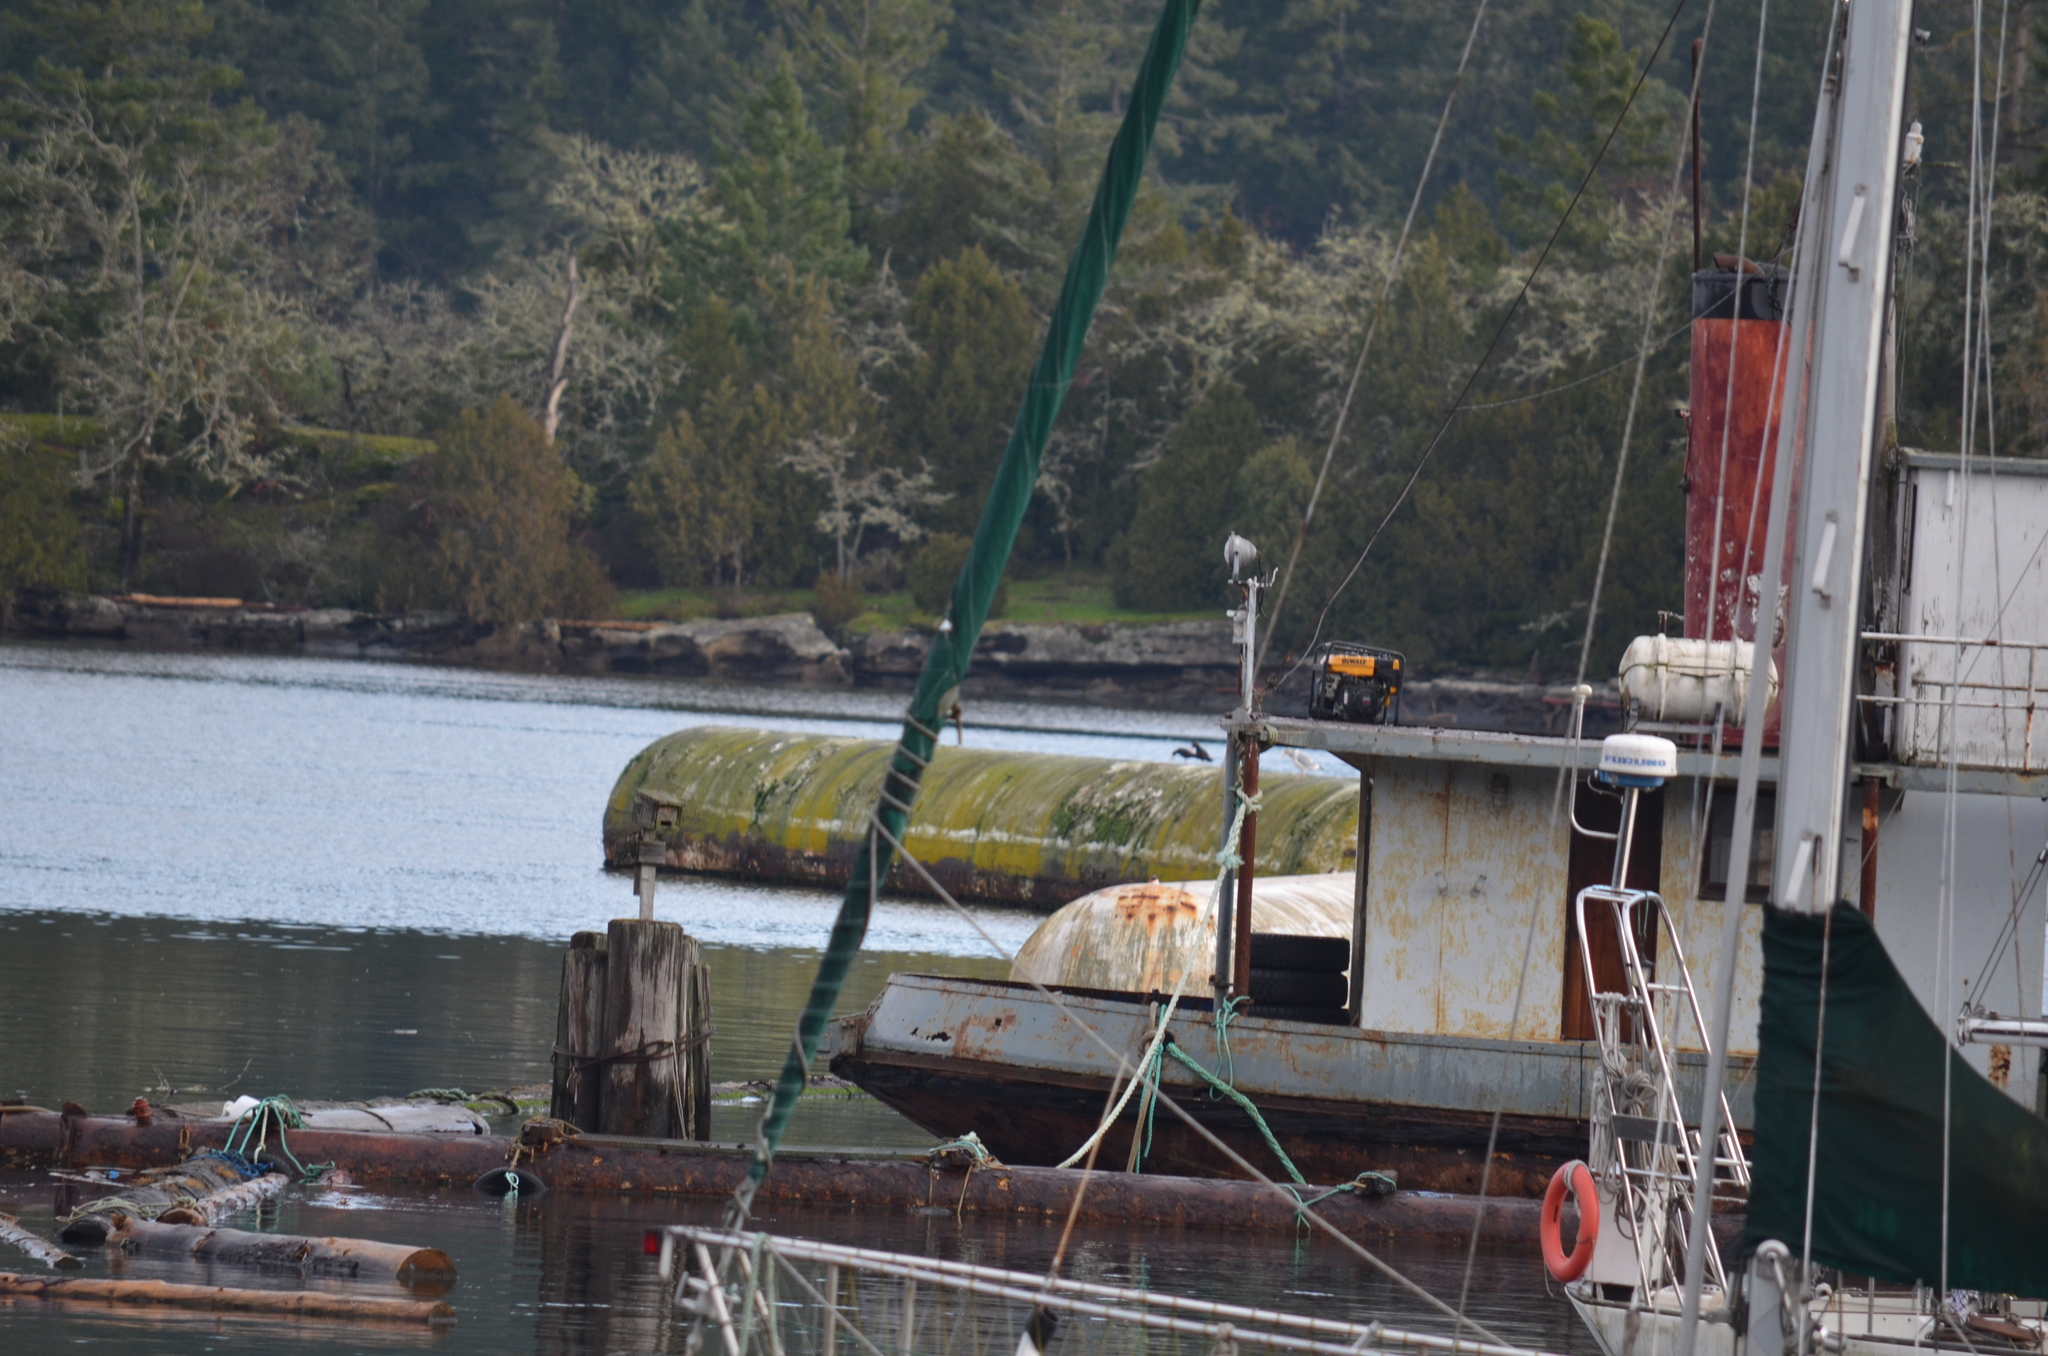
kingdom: Animalia
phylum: Chordata
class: Aves
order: Charadriiformes
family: Haematopodidae
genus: Haematopus
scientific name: Haematopus bachmani
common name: Black oystercatcher
